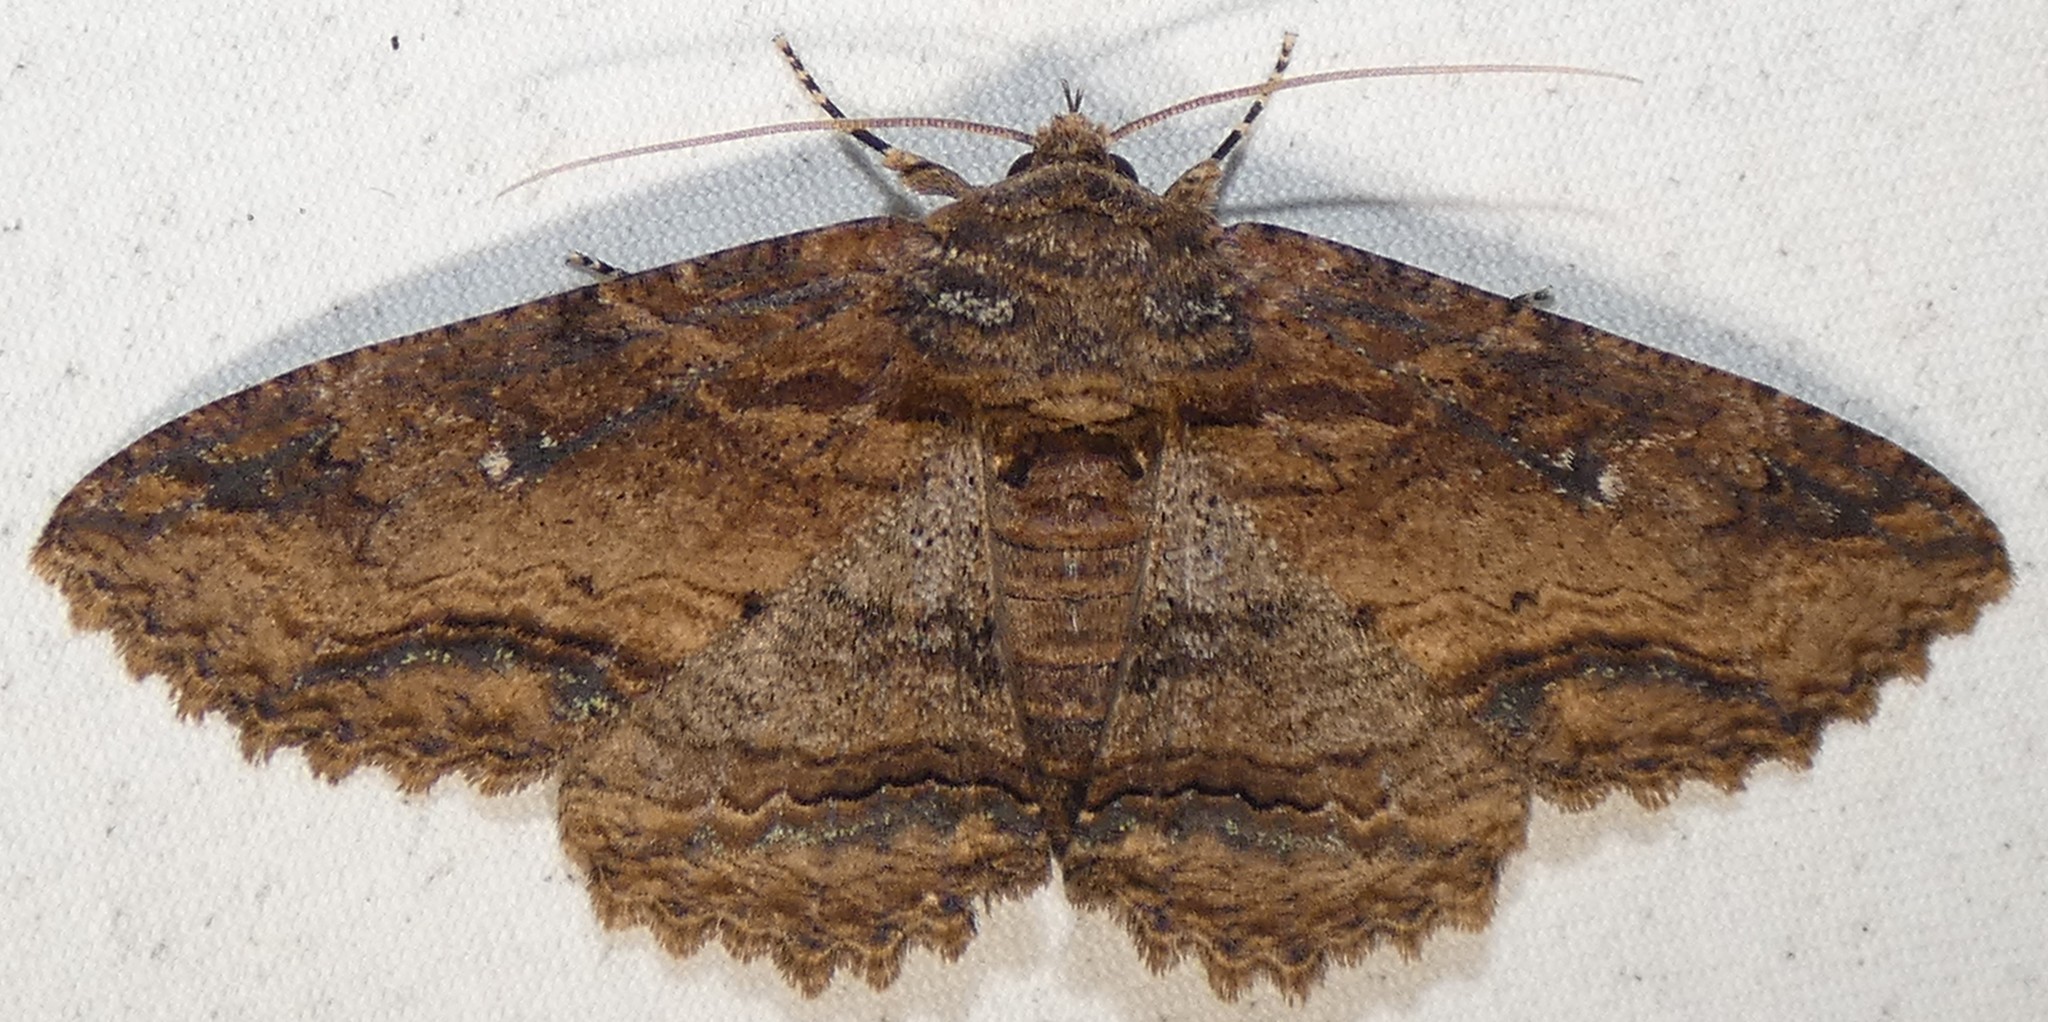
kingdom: Animalia
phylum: Arthropoda
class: Insecta
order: Lepidoptera
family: Erebidae
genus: Zale
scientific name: Zale lunata
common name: Lunate zale moth
